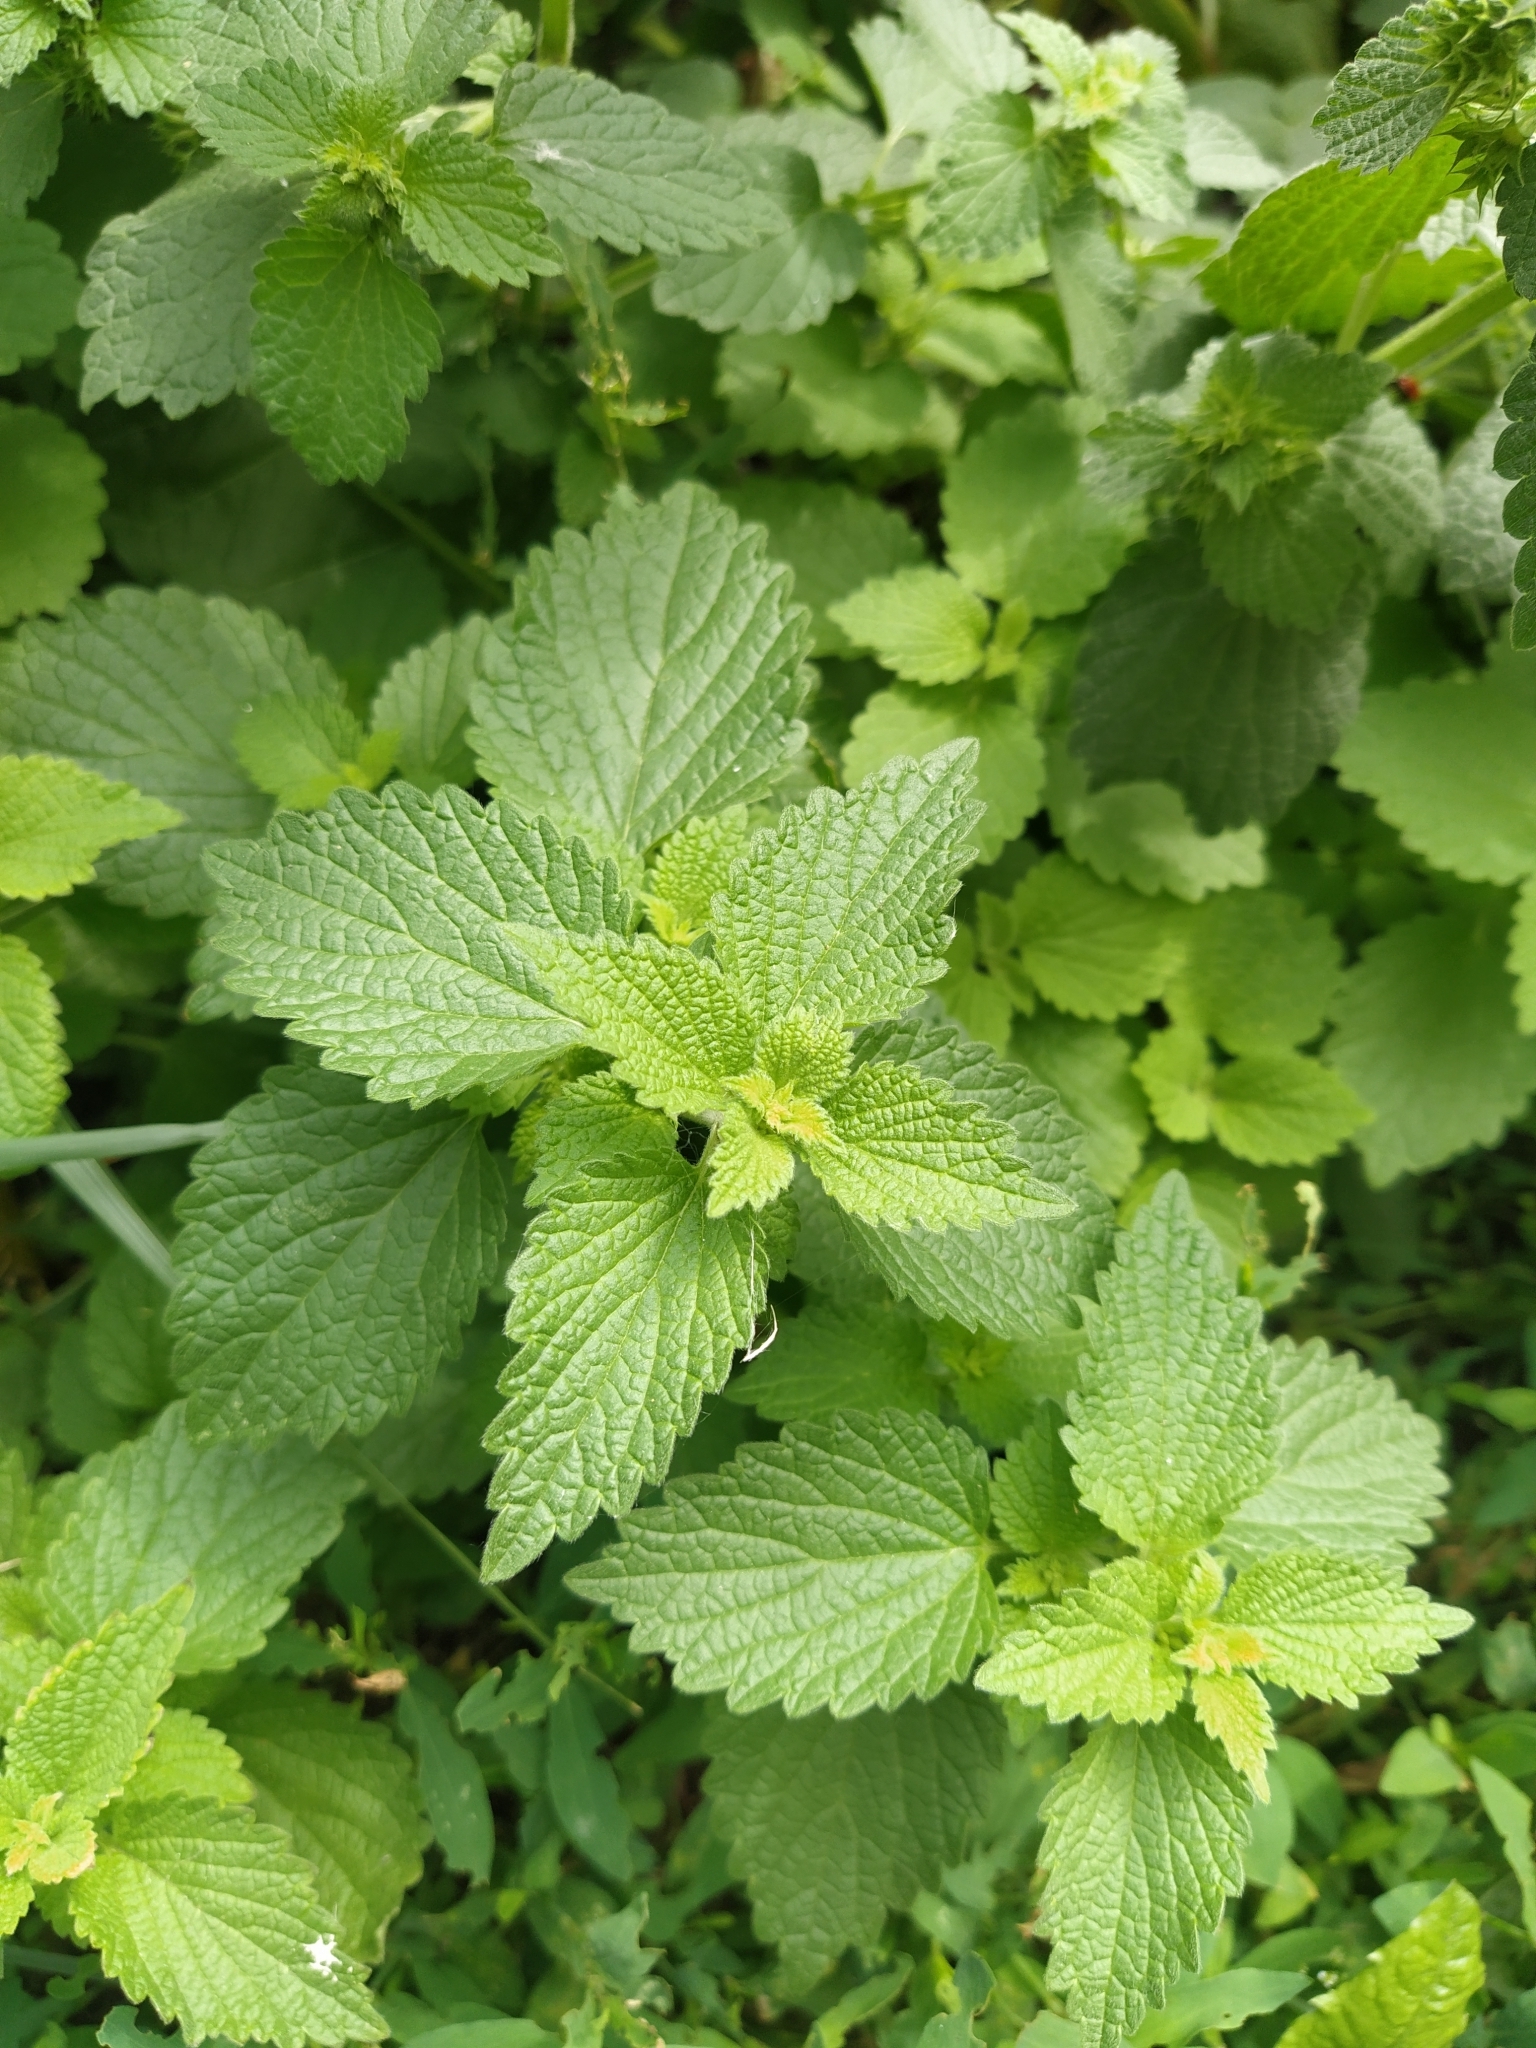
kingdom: Plantae
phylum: Tracheophyta
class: Magnoliopsida
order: Lamiales
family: Lamiaceae
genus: Ballota
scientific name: Ballota nigra
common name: Black horehound
